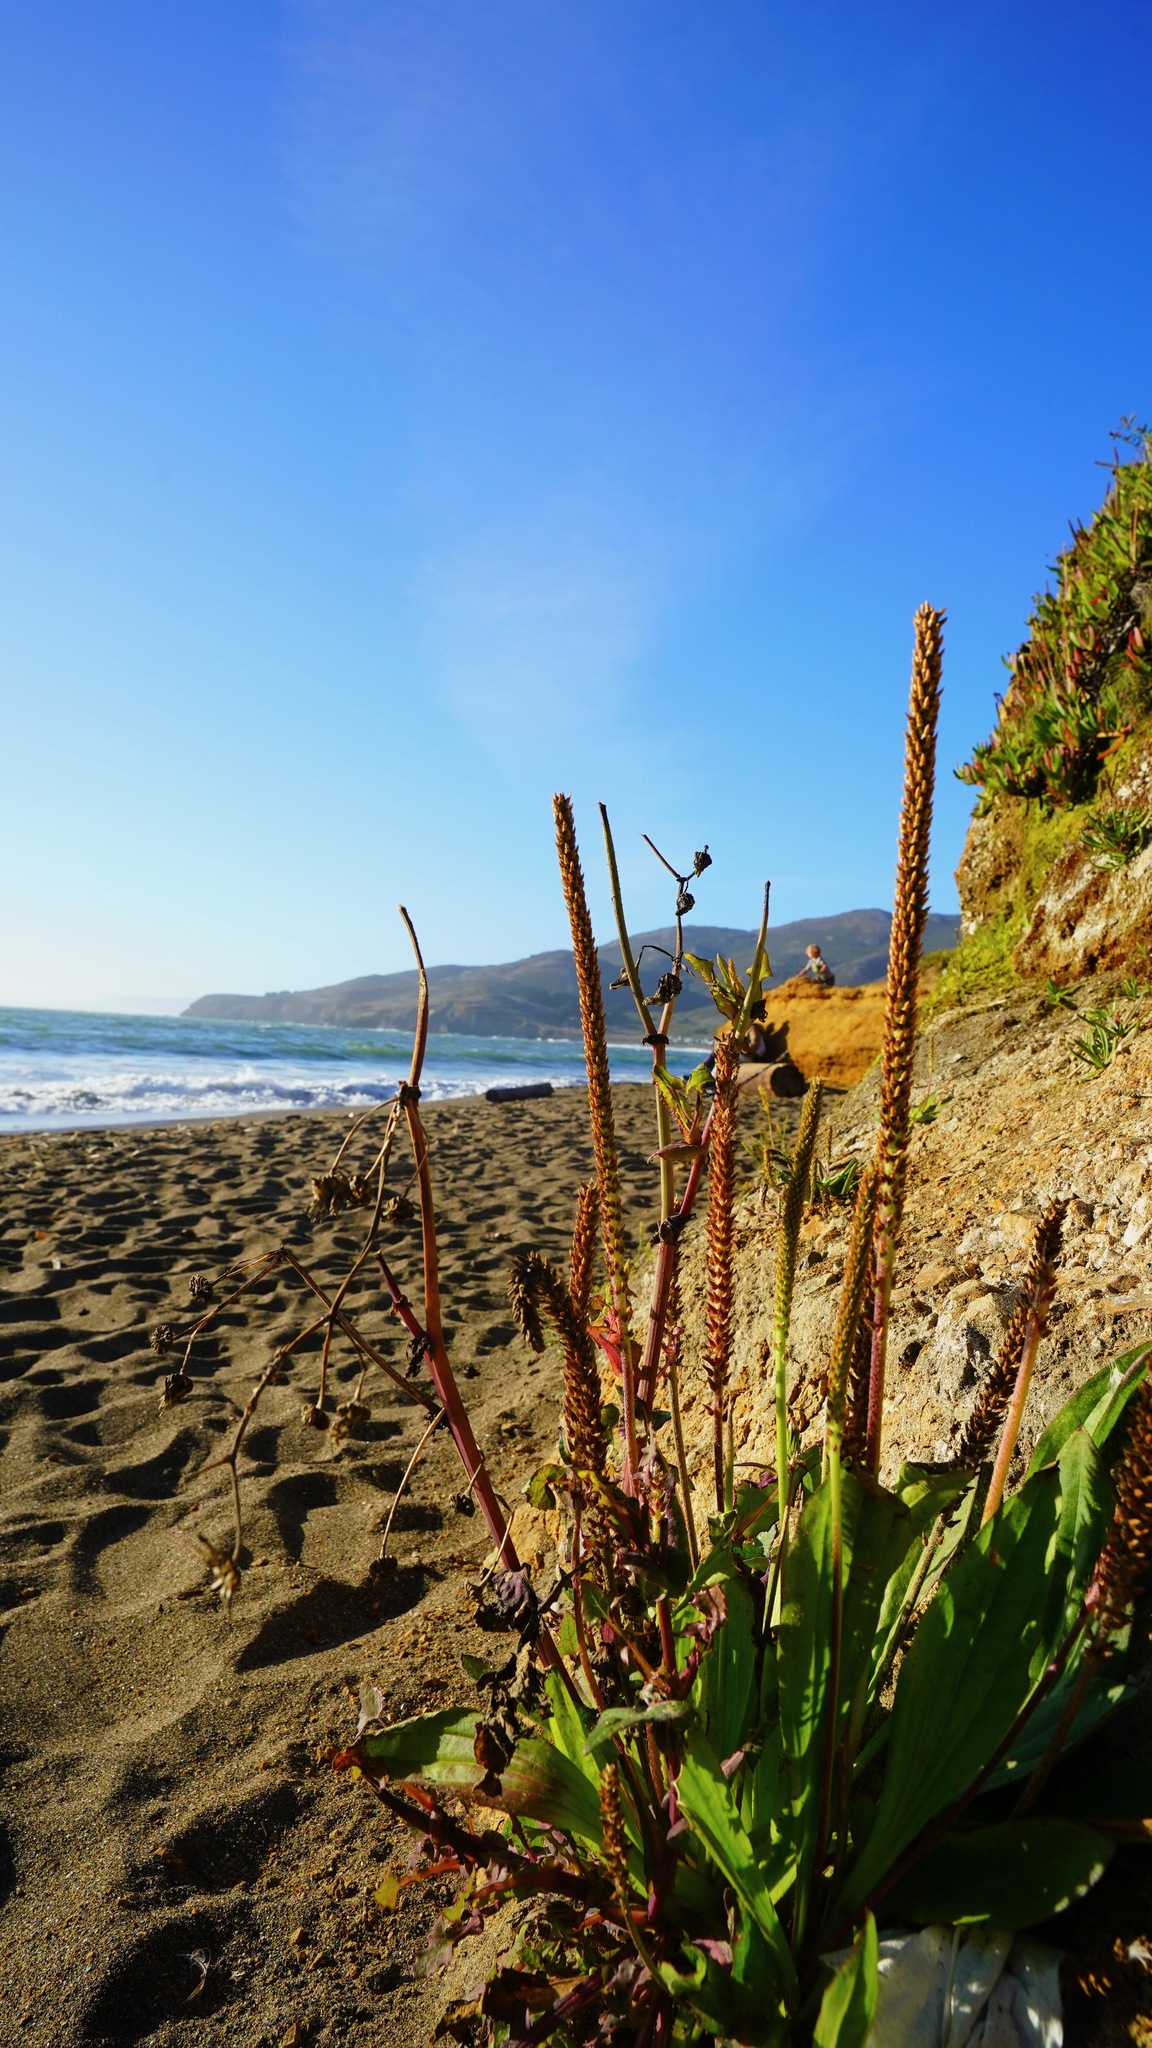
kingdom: Plantae
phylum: Tracheophyta
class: Magnoliopsida
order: Lamiales
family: Plantaginaceae
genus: Plantago
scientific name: Plantago subnuda
